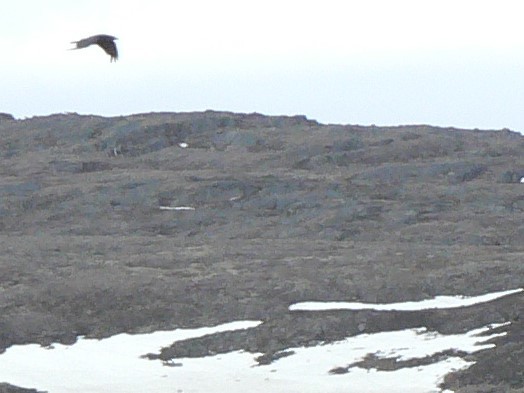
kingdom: Animalia
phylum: Chordata
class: Aves
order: Passeriformes
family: Corvidae
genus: Corvus
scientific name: Corvus corax
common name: Common raven
